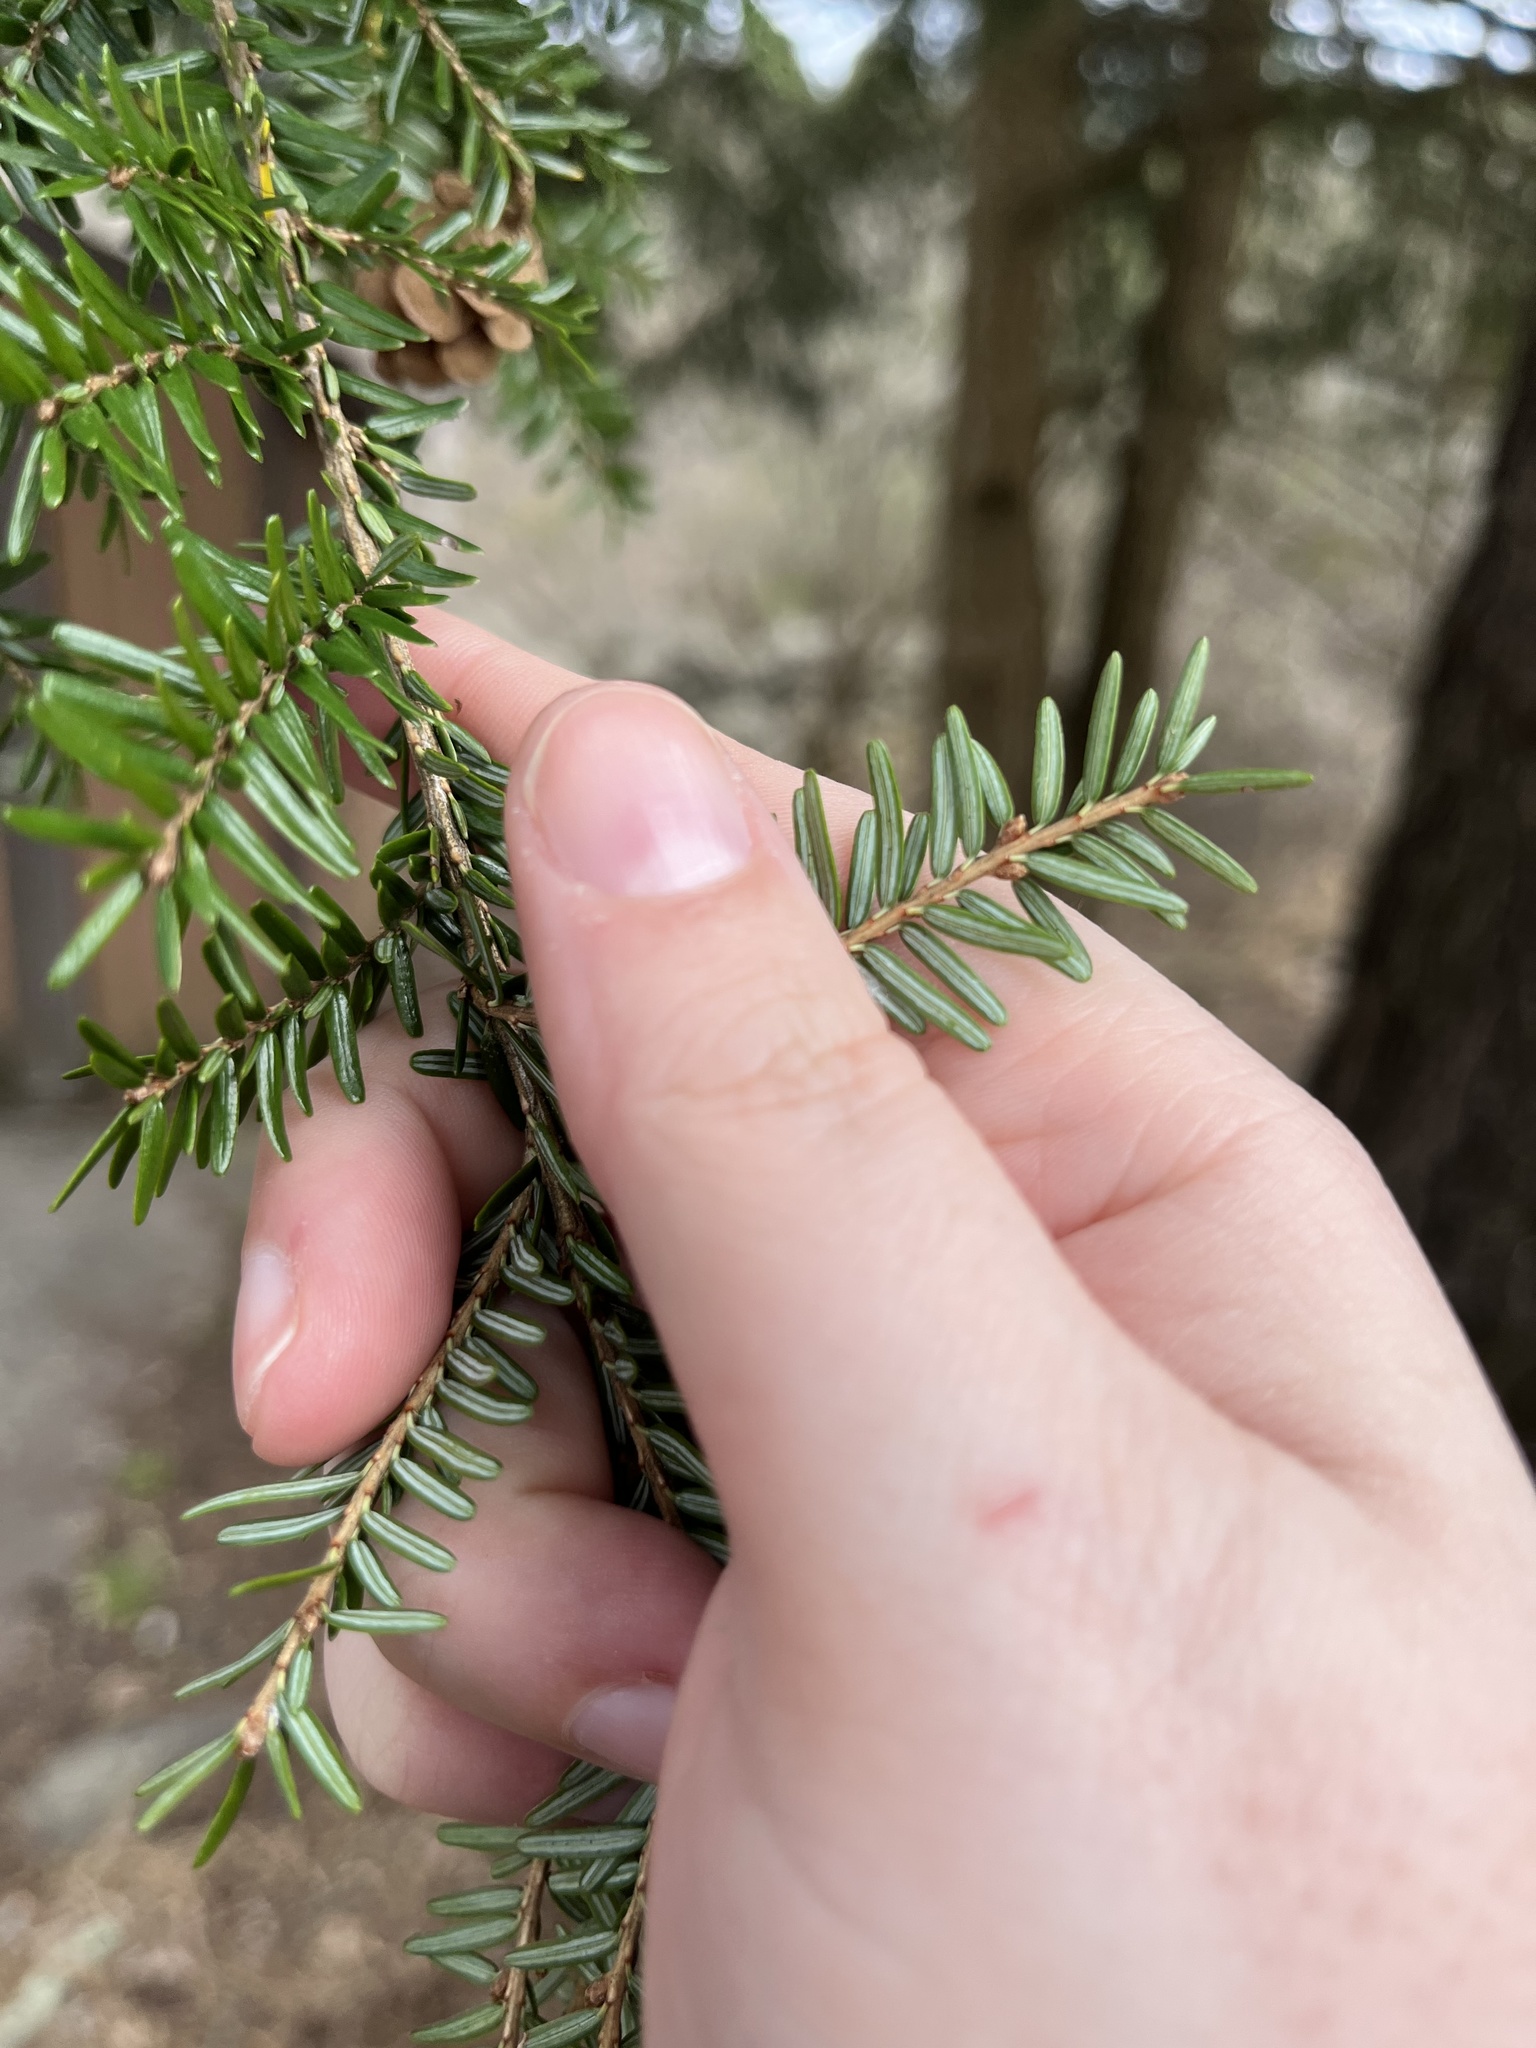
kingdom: Plantae
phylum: Tracheophyta
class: Pinopsida
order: Pinales
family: Pinaceae
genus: Tsuga
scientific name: Tsuga canadensis
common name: Eastern hemlock
